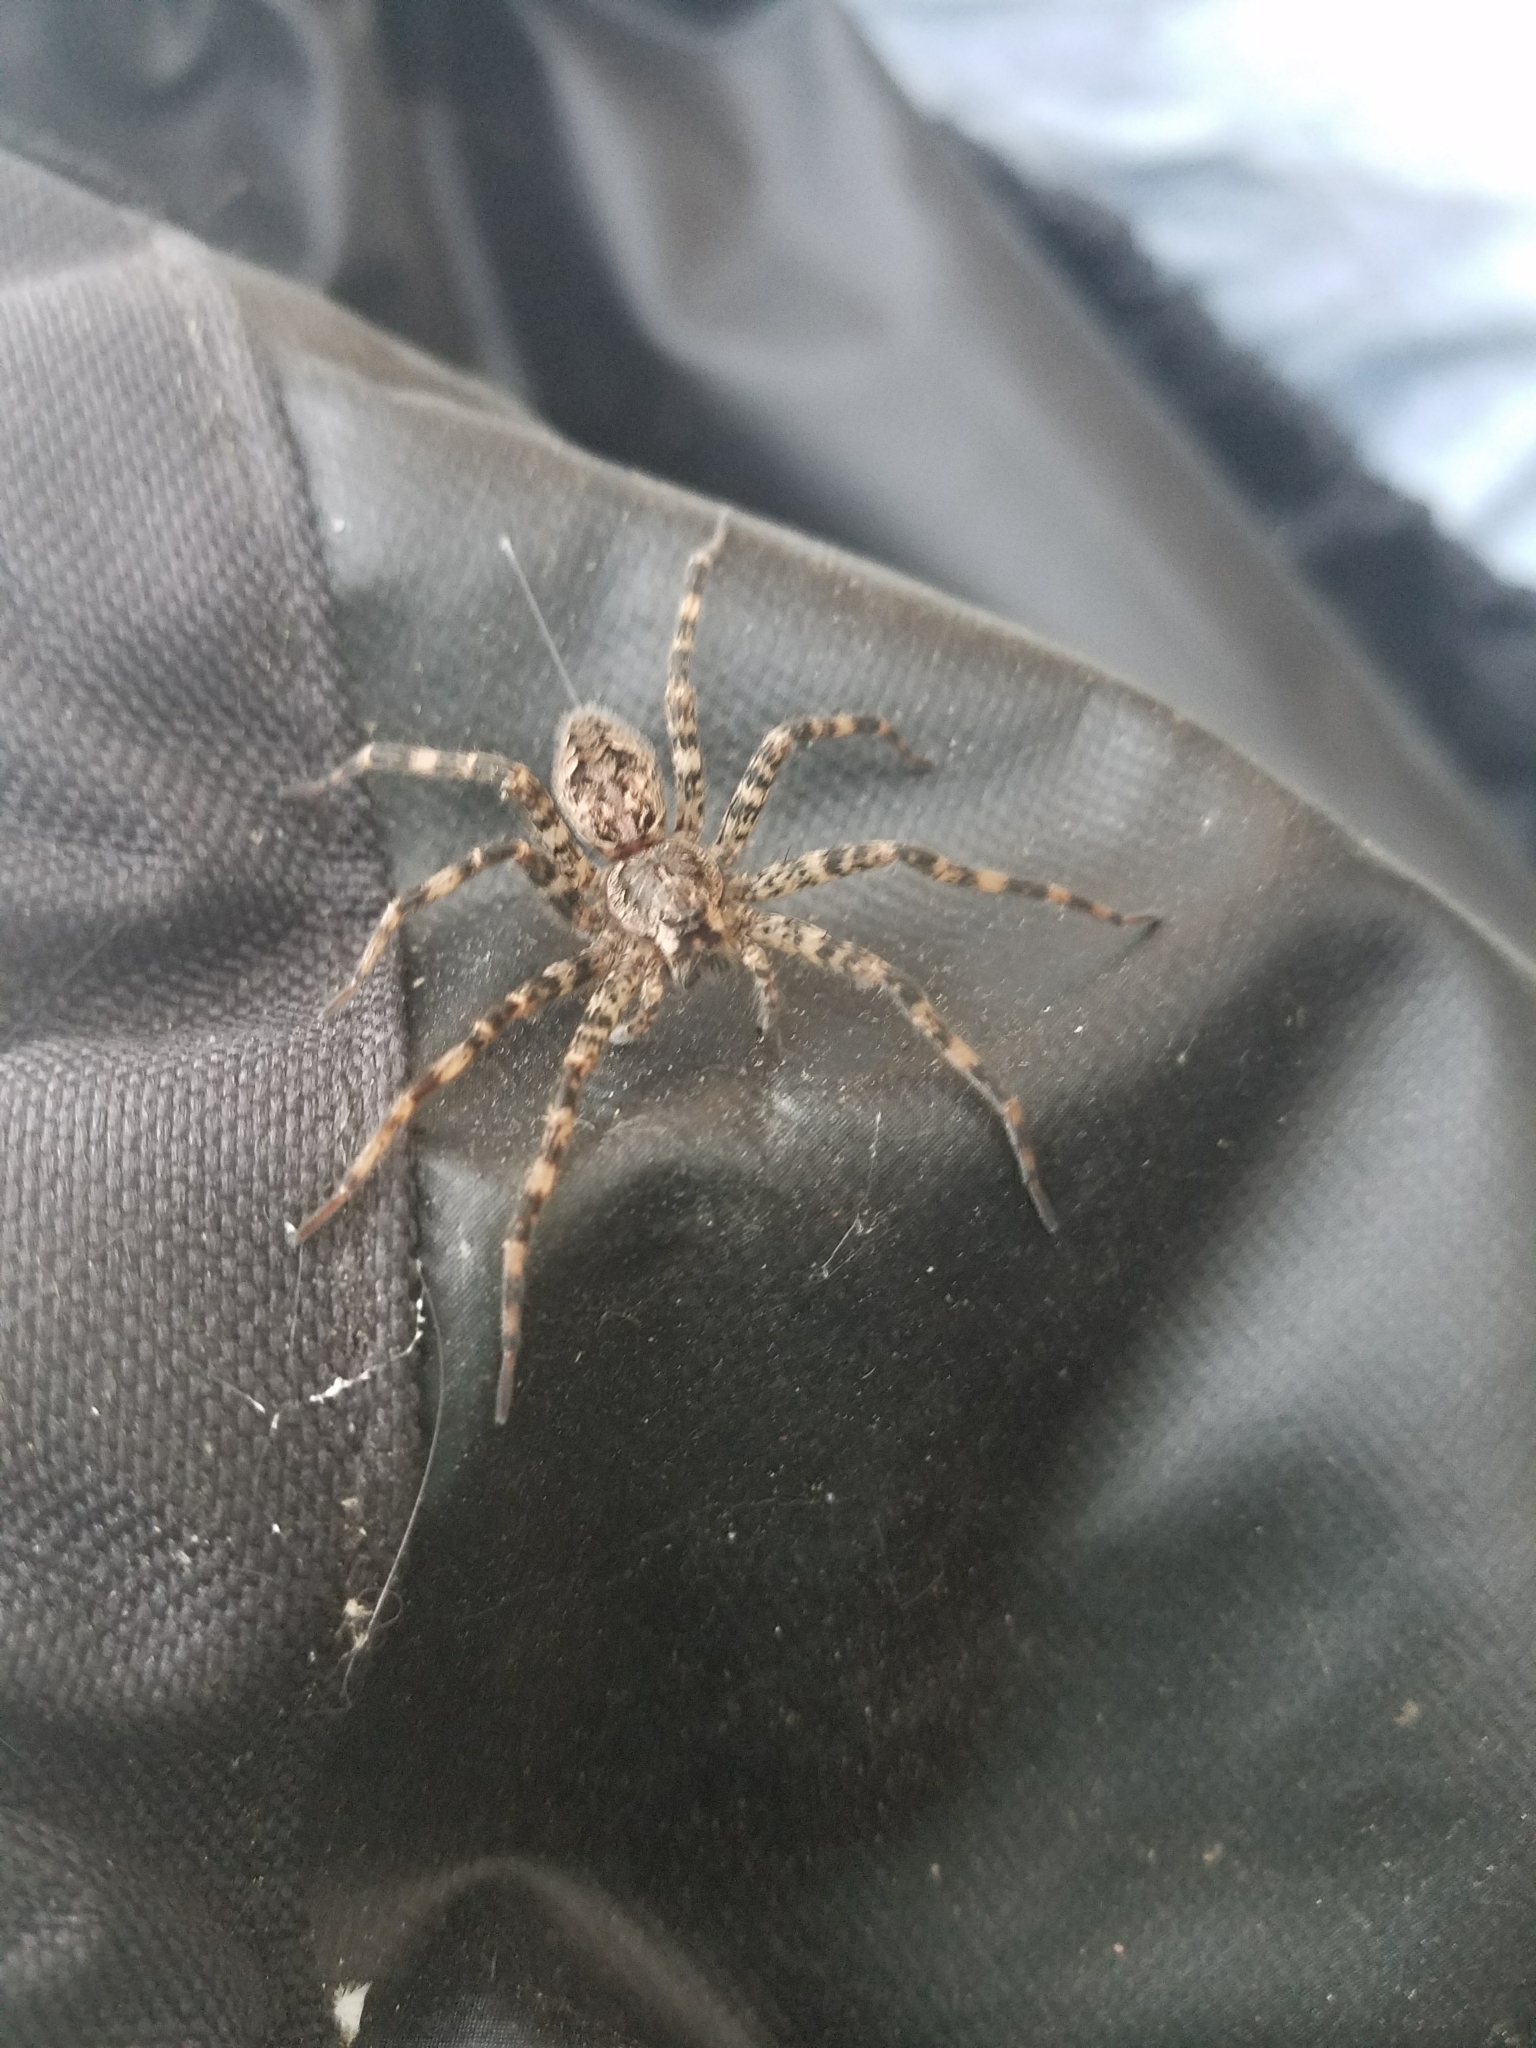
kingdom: Animalia
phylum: Arthropoda
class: Arachnida
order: Araneae
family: Pisauridae
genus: Dolomedes
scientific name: Dolomedes tenebrosus
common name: Dark fishing spider
